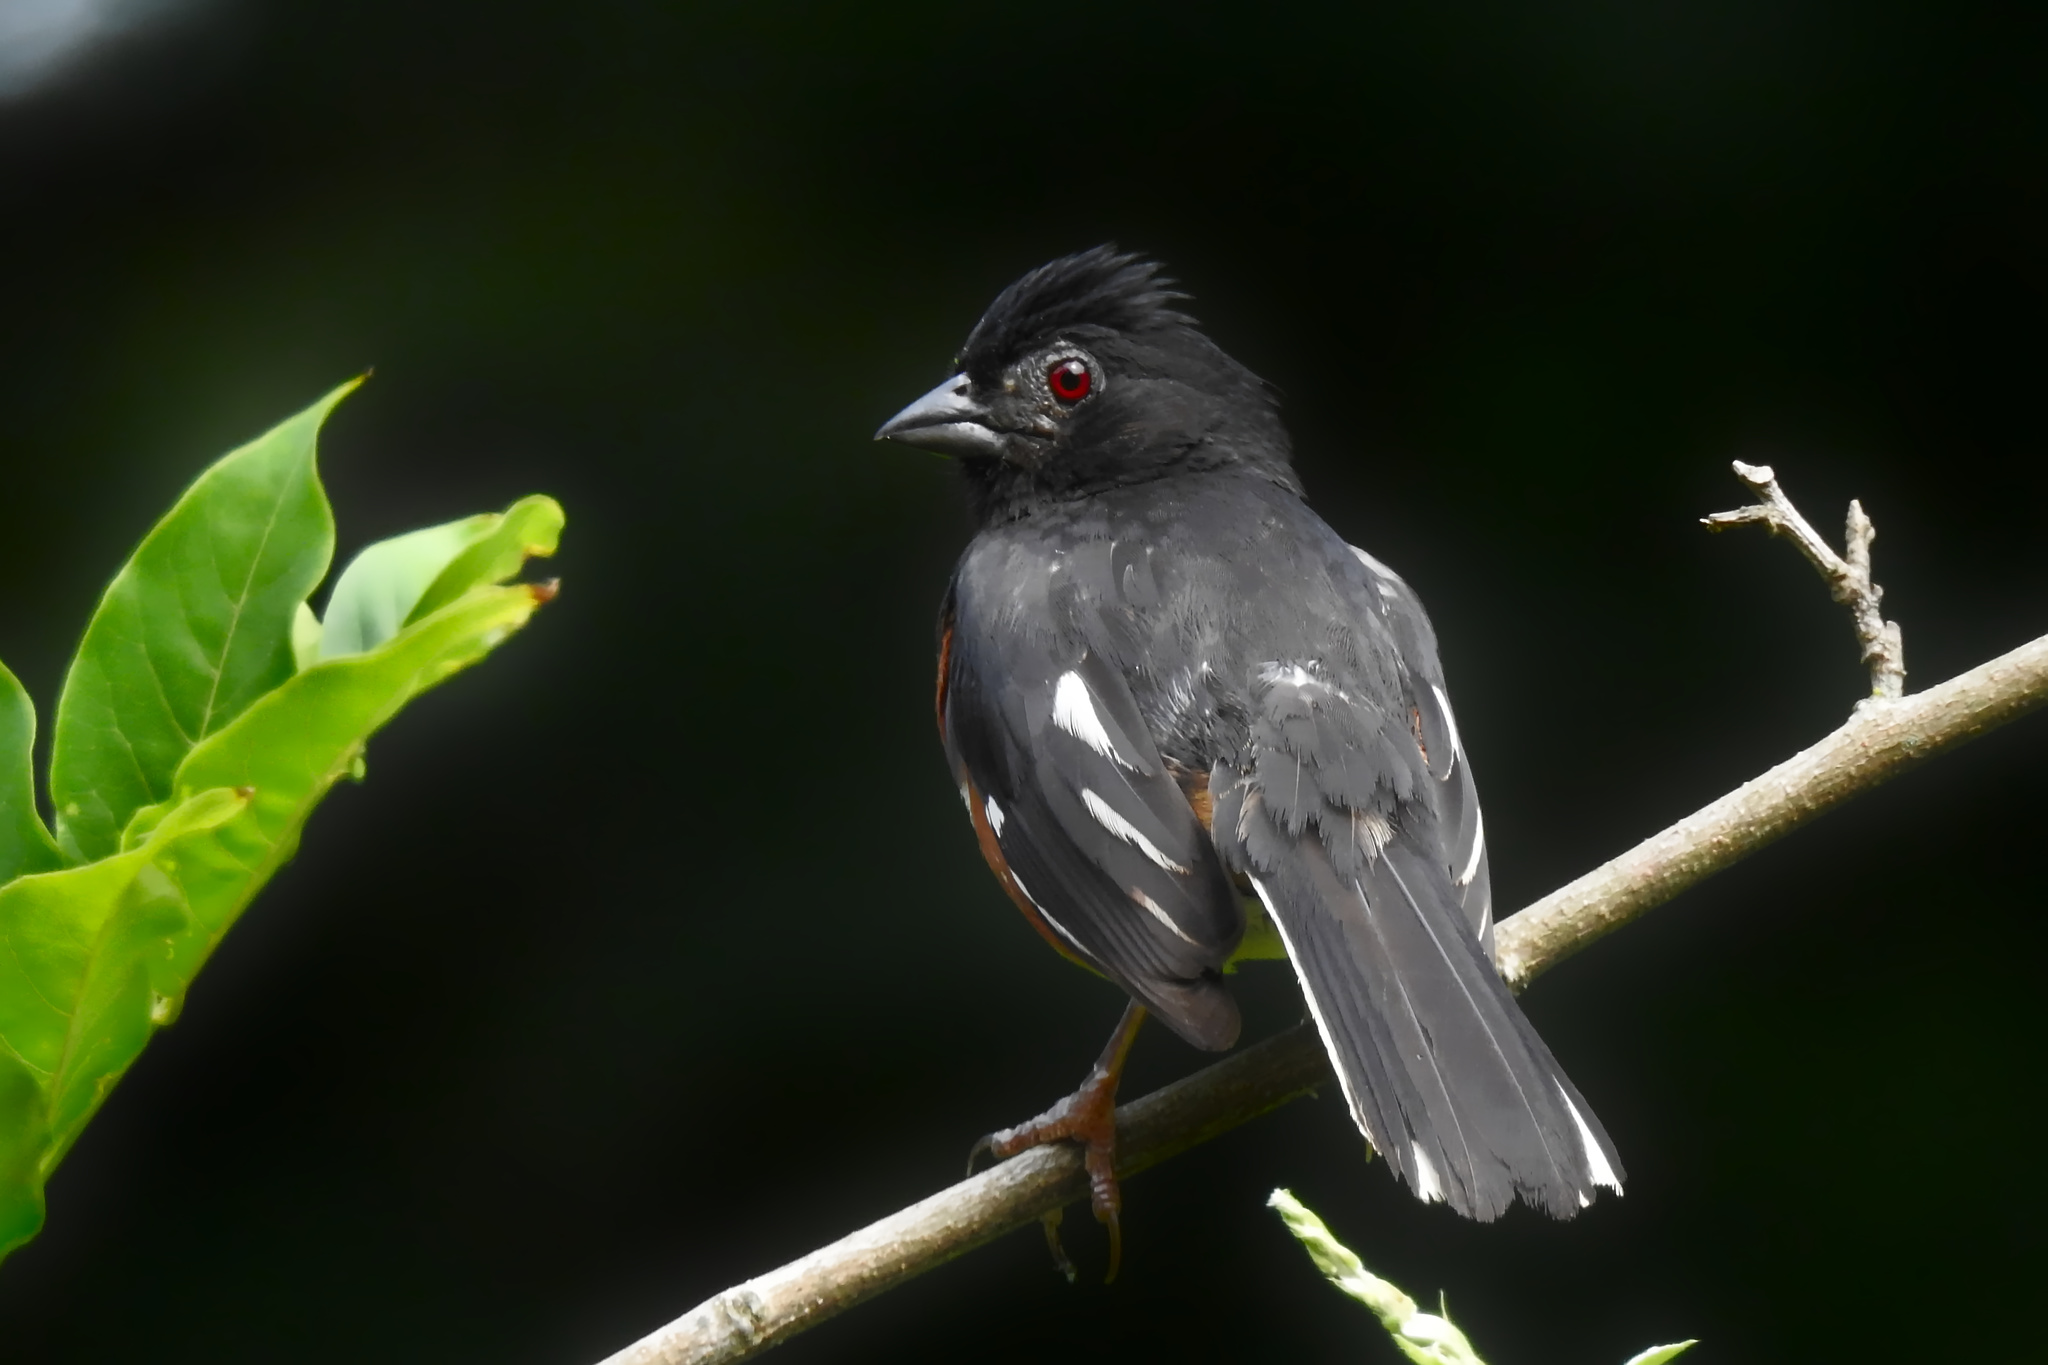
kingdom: Animalia
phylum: Chordata
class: Aves
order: Passeriformes
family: Passerellidae
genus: Pipilo
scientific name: Pipilo erythrophthalmus
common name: Eastern towhee
